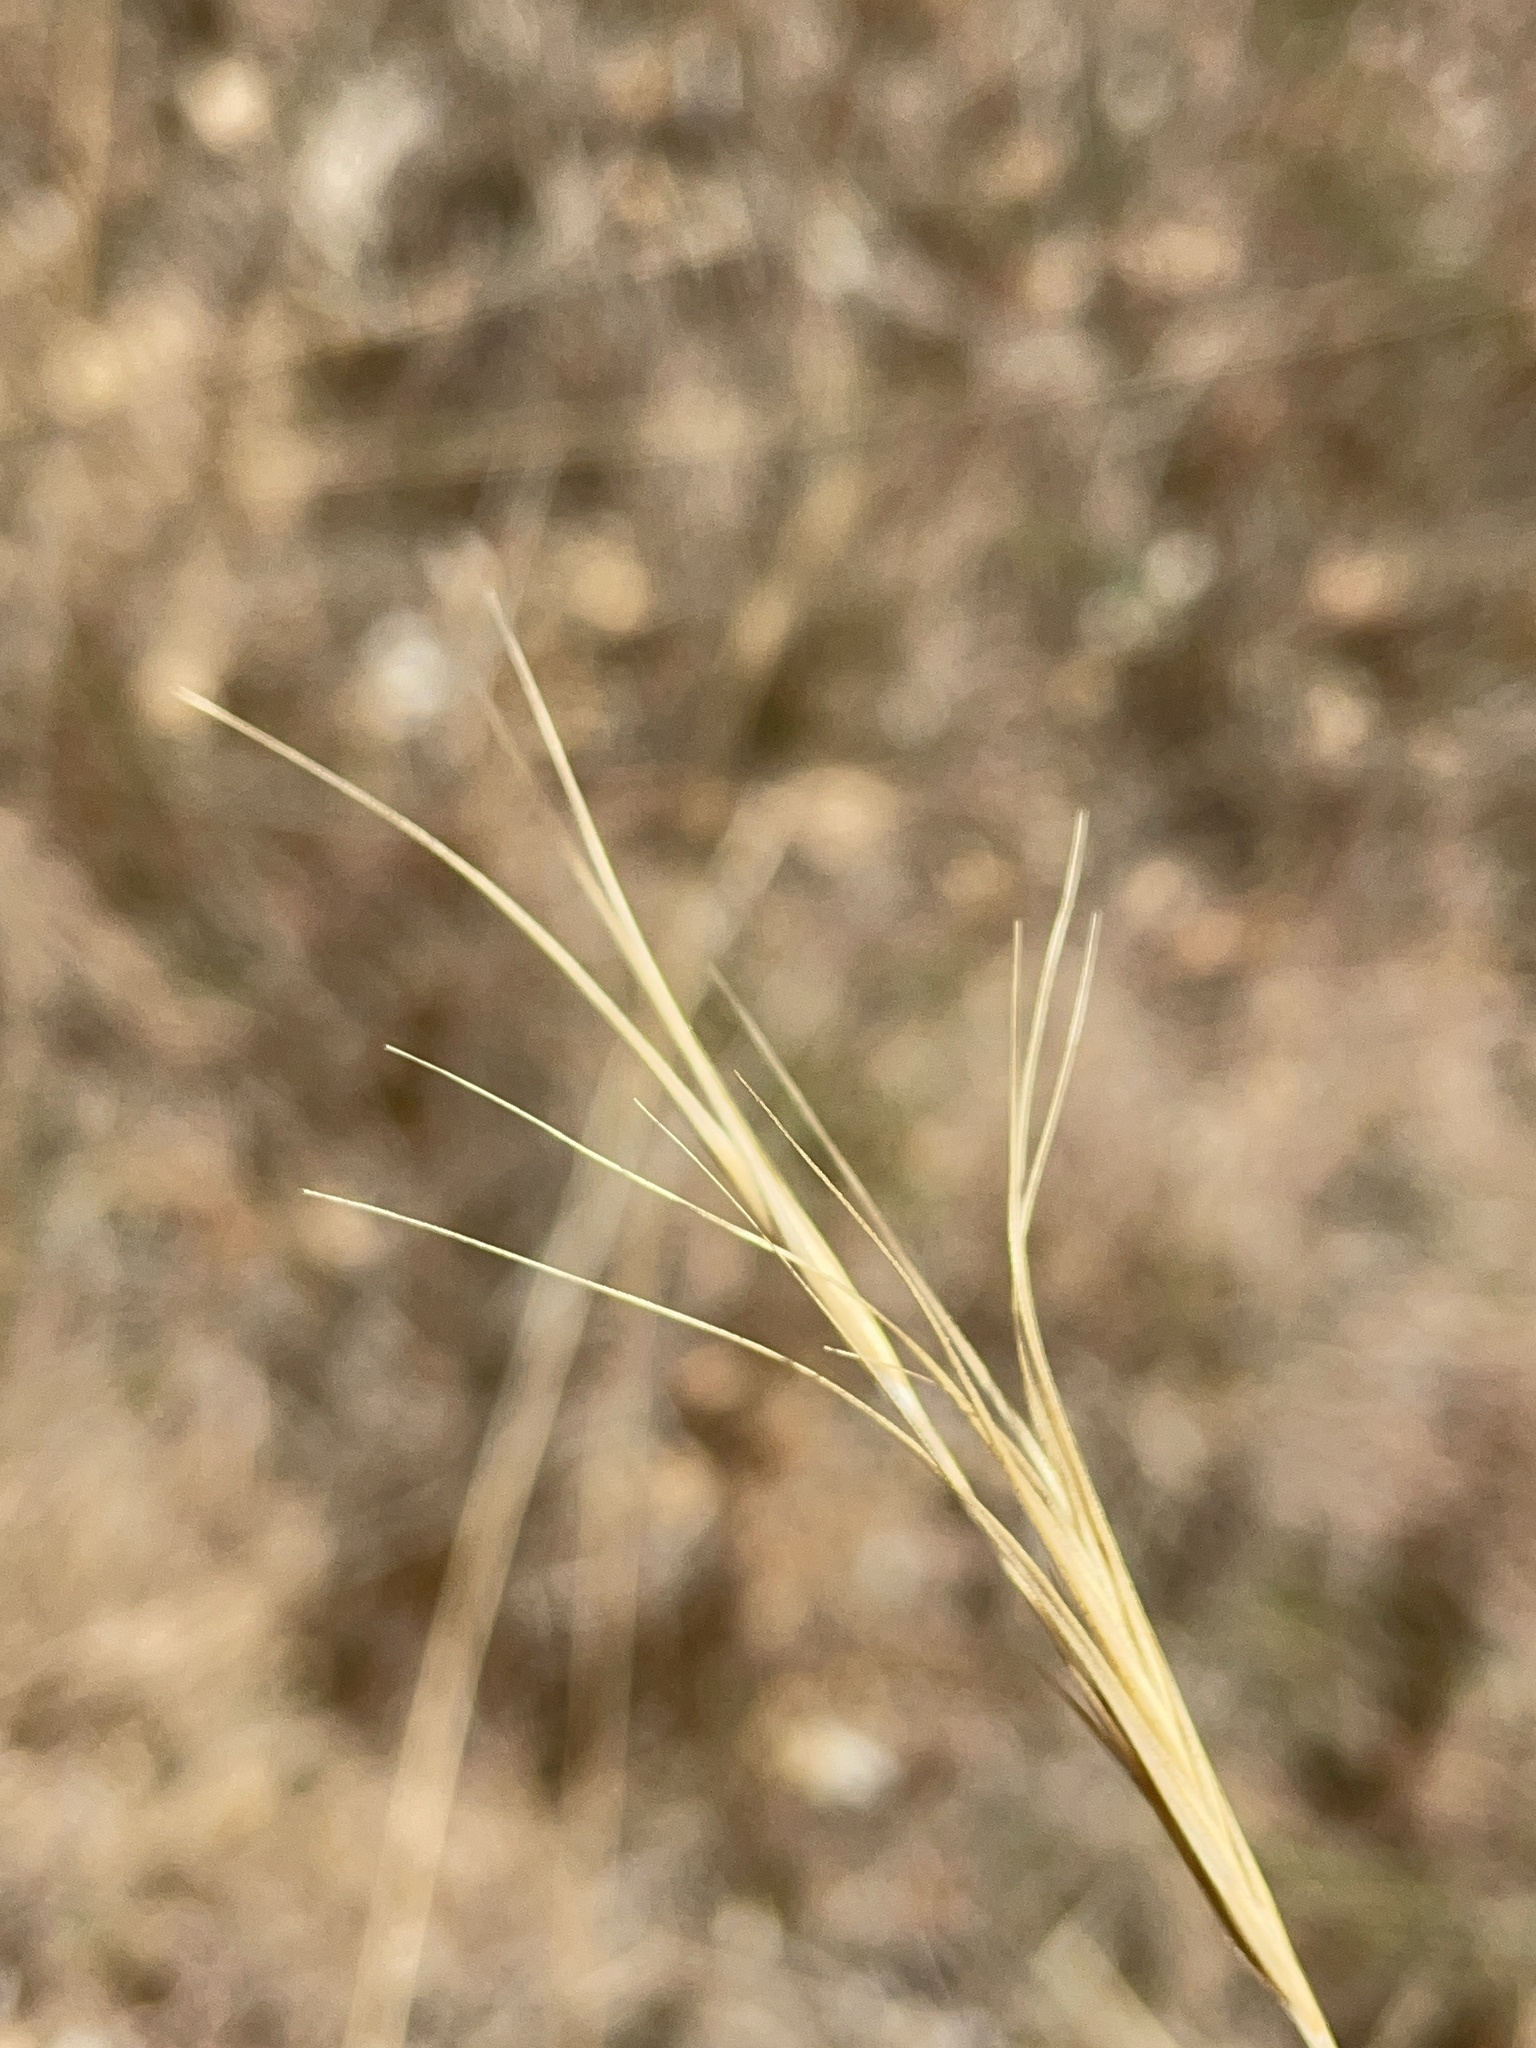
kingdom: Plantae
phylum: Tracheophyta
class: Liliopsida
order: Poales
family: Poaceae
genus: Anthosachne
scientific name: Anthosachne scabra
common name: Common wheatgrass
